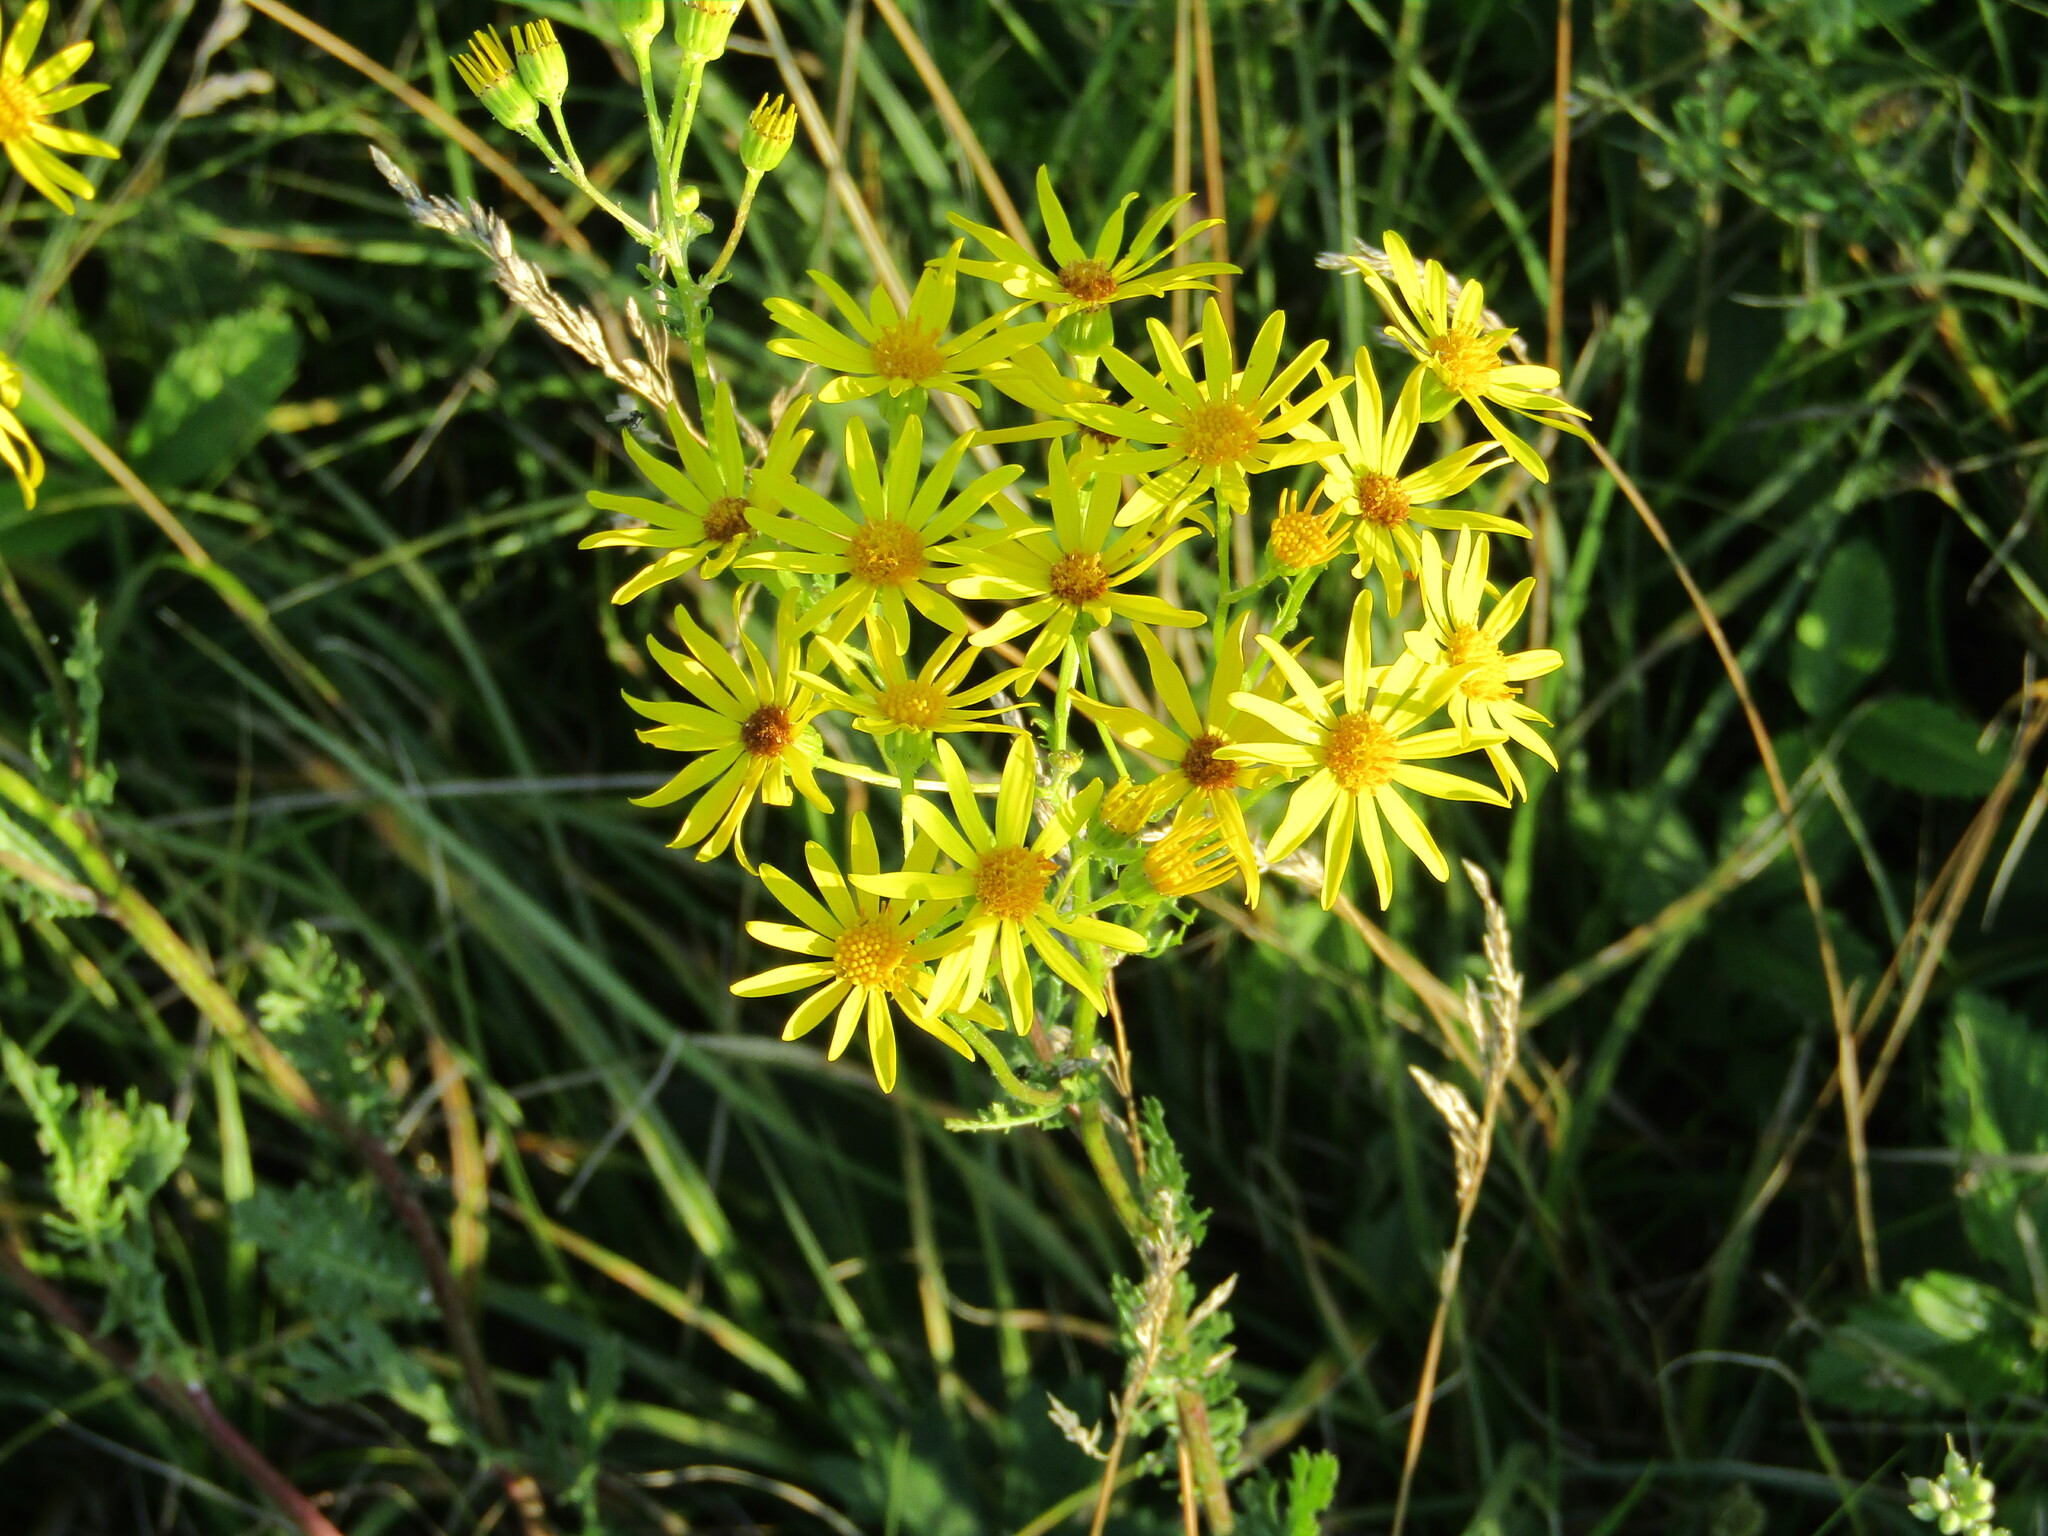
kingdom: Plantae
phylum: Tracheophyta
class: Magnoliopsida
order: Asterales
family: Asteraceae
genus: Jacobaea
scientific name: Jacobaea vulgaris
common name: Stinking willie
